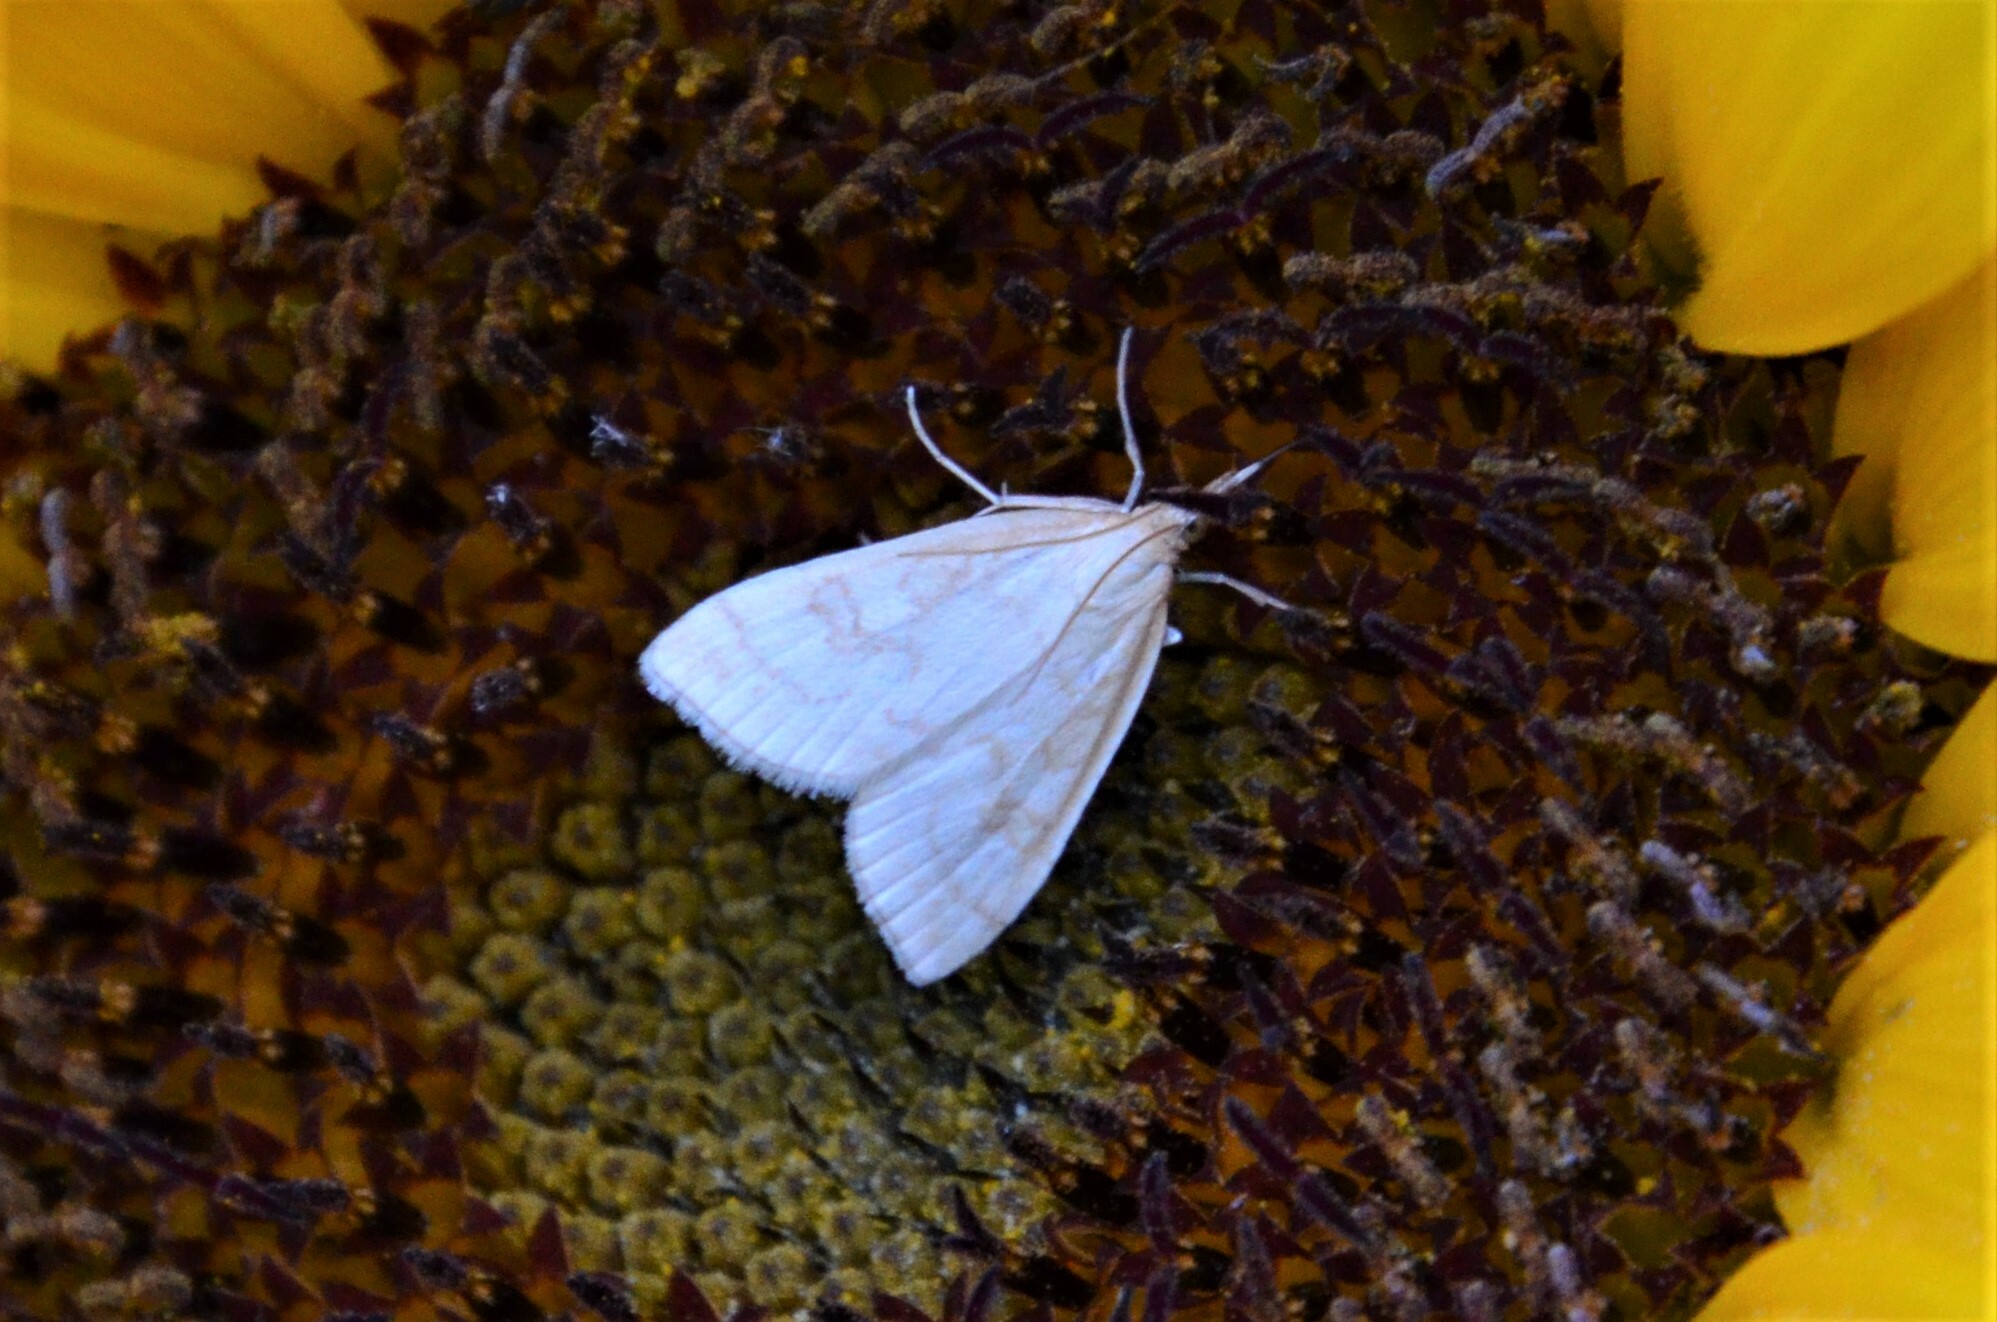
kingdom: Animalia
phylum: Arthropoda
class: Insecta
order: Lepidoptera
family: Crambidae
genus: Udea
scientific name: Udea lutealis
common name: Pale straw pearl
